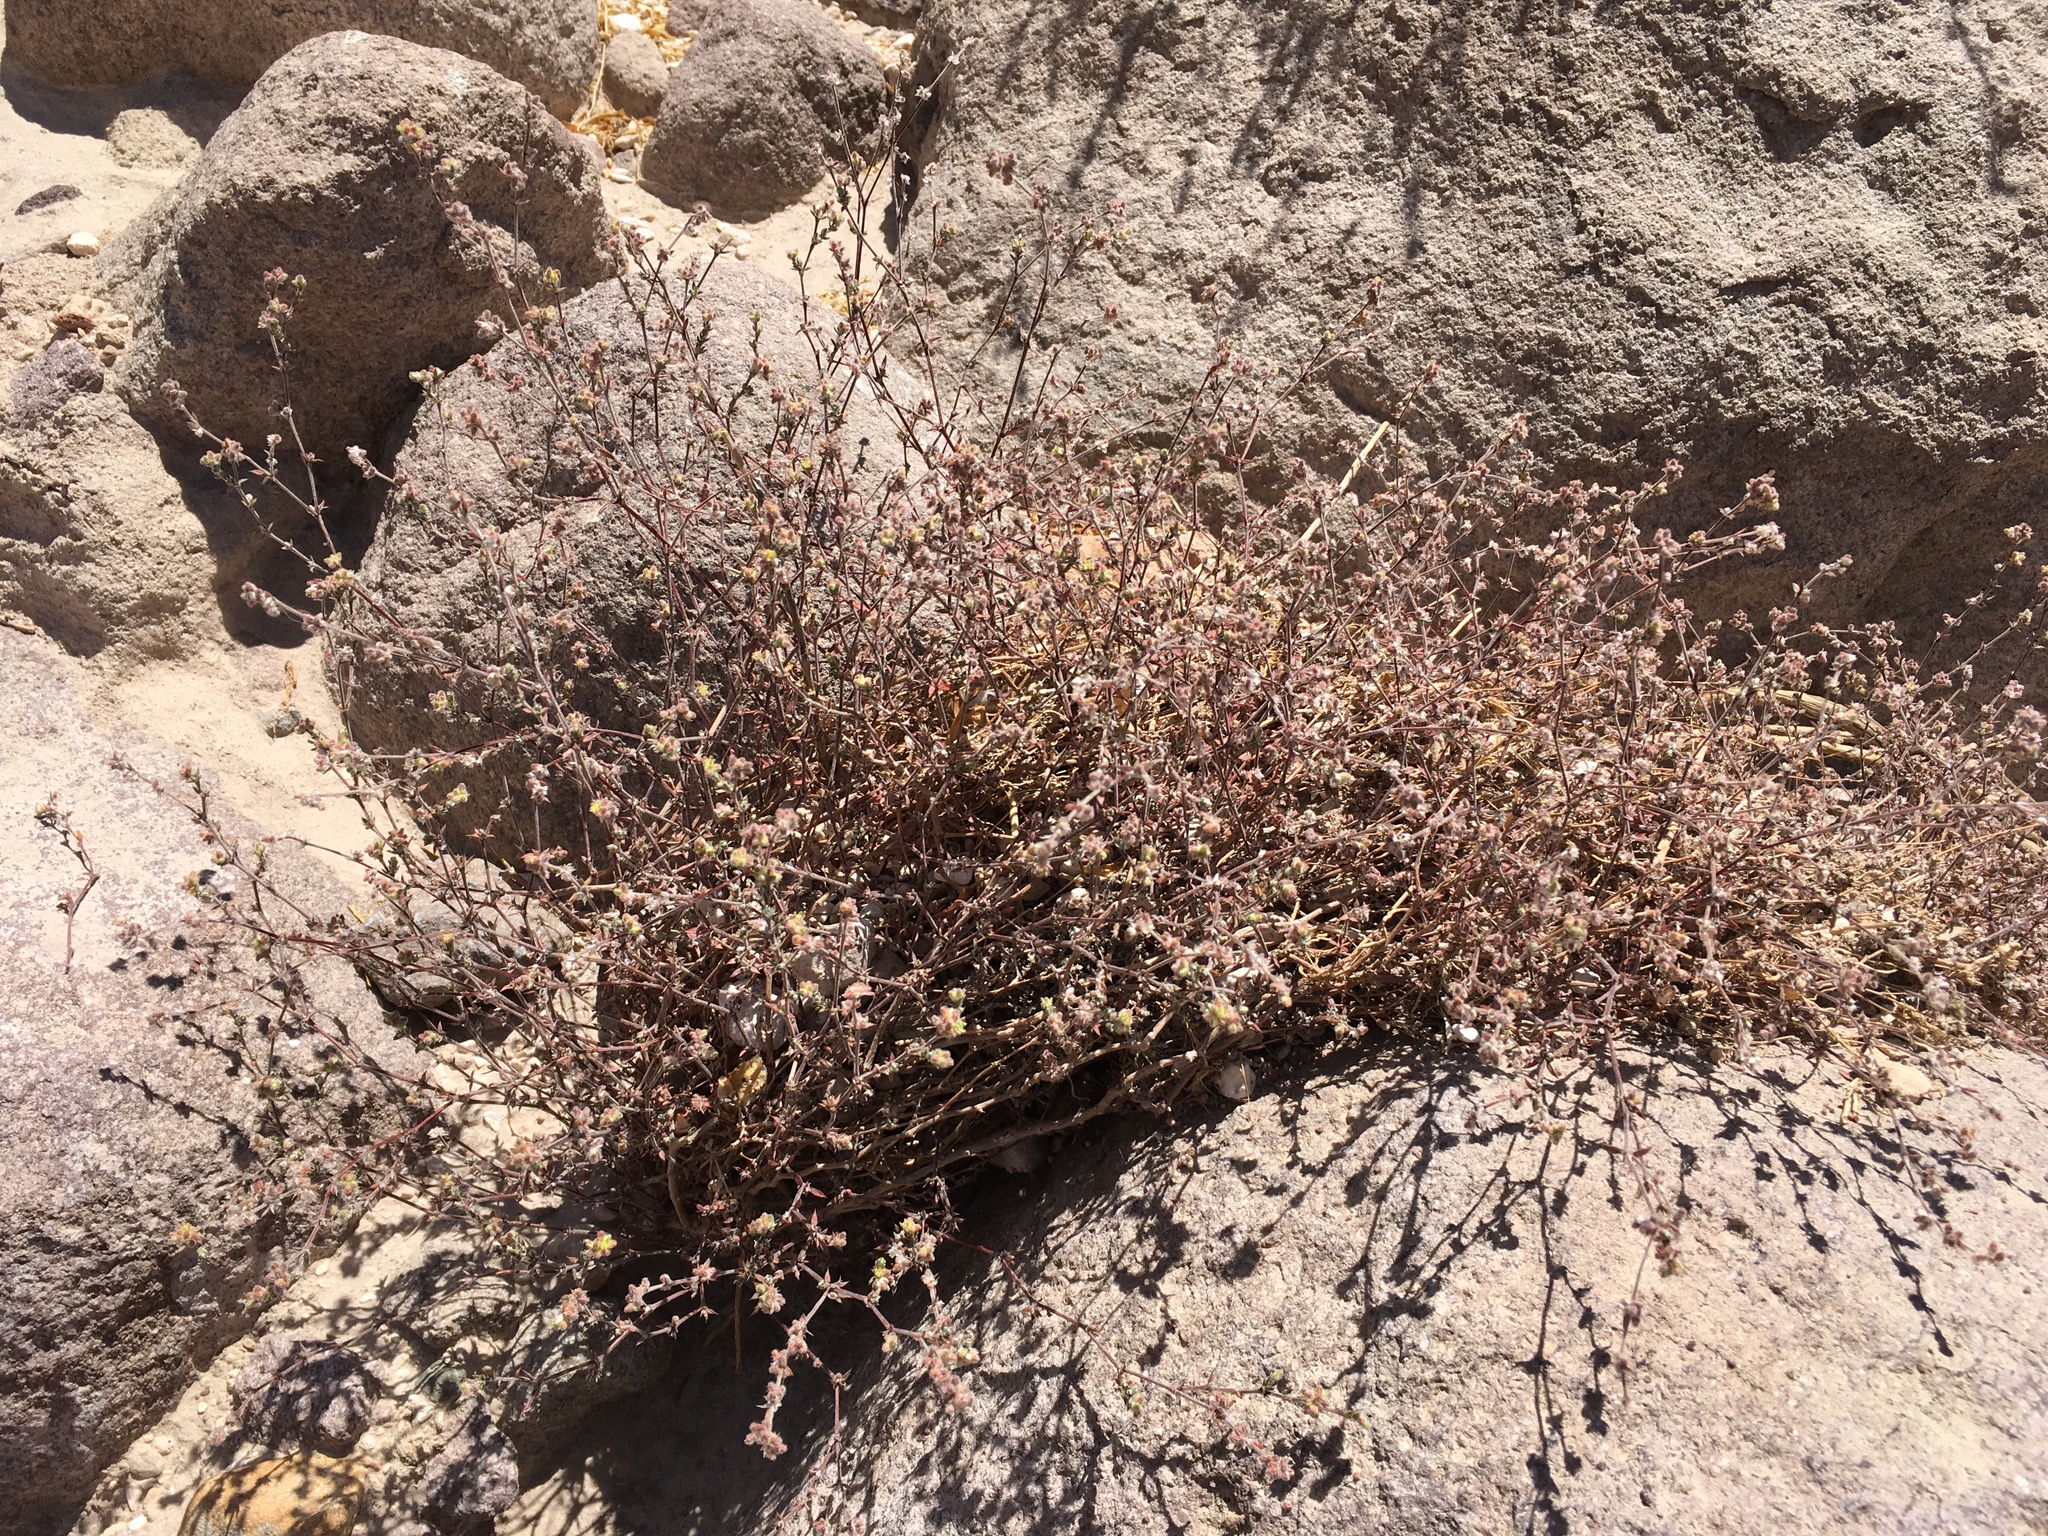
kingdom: Plantae
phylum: Tracheophyta
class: Magnoliopsida
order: Caryophyllales
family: Polygonaceae
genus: Chorizanthe
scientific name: Chorizanthe commissuralis
